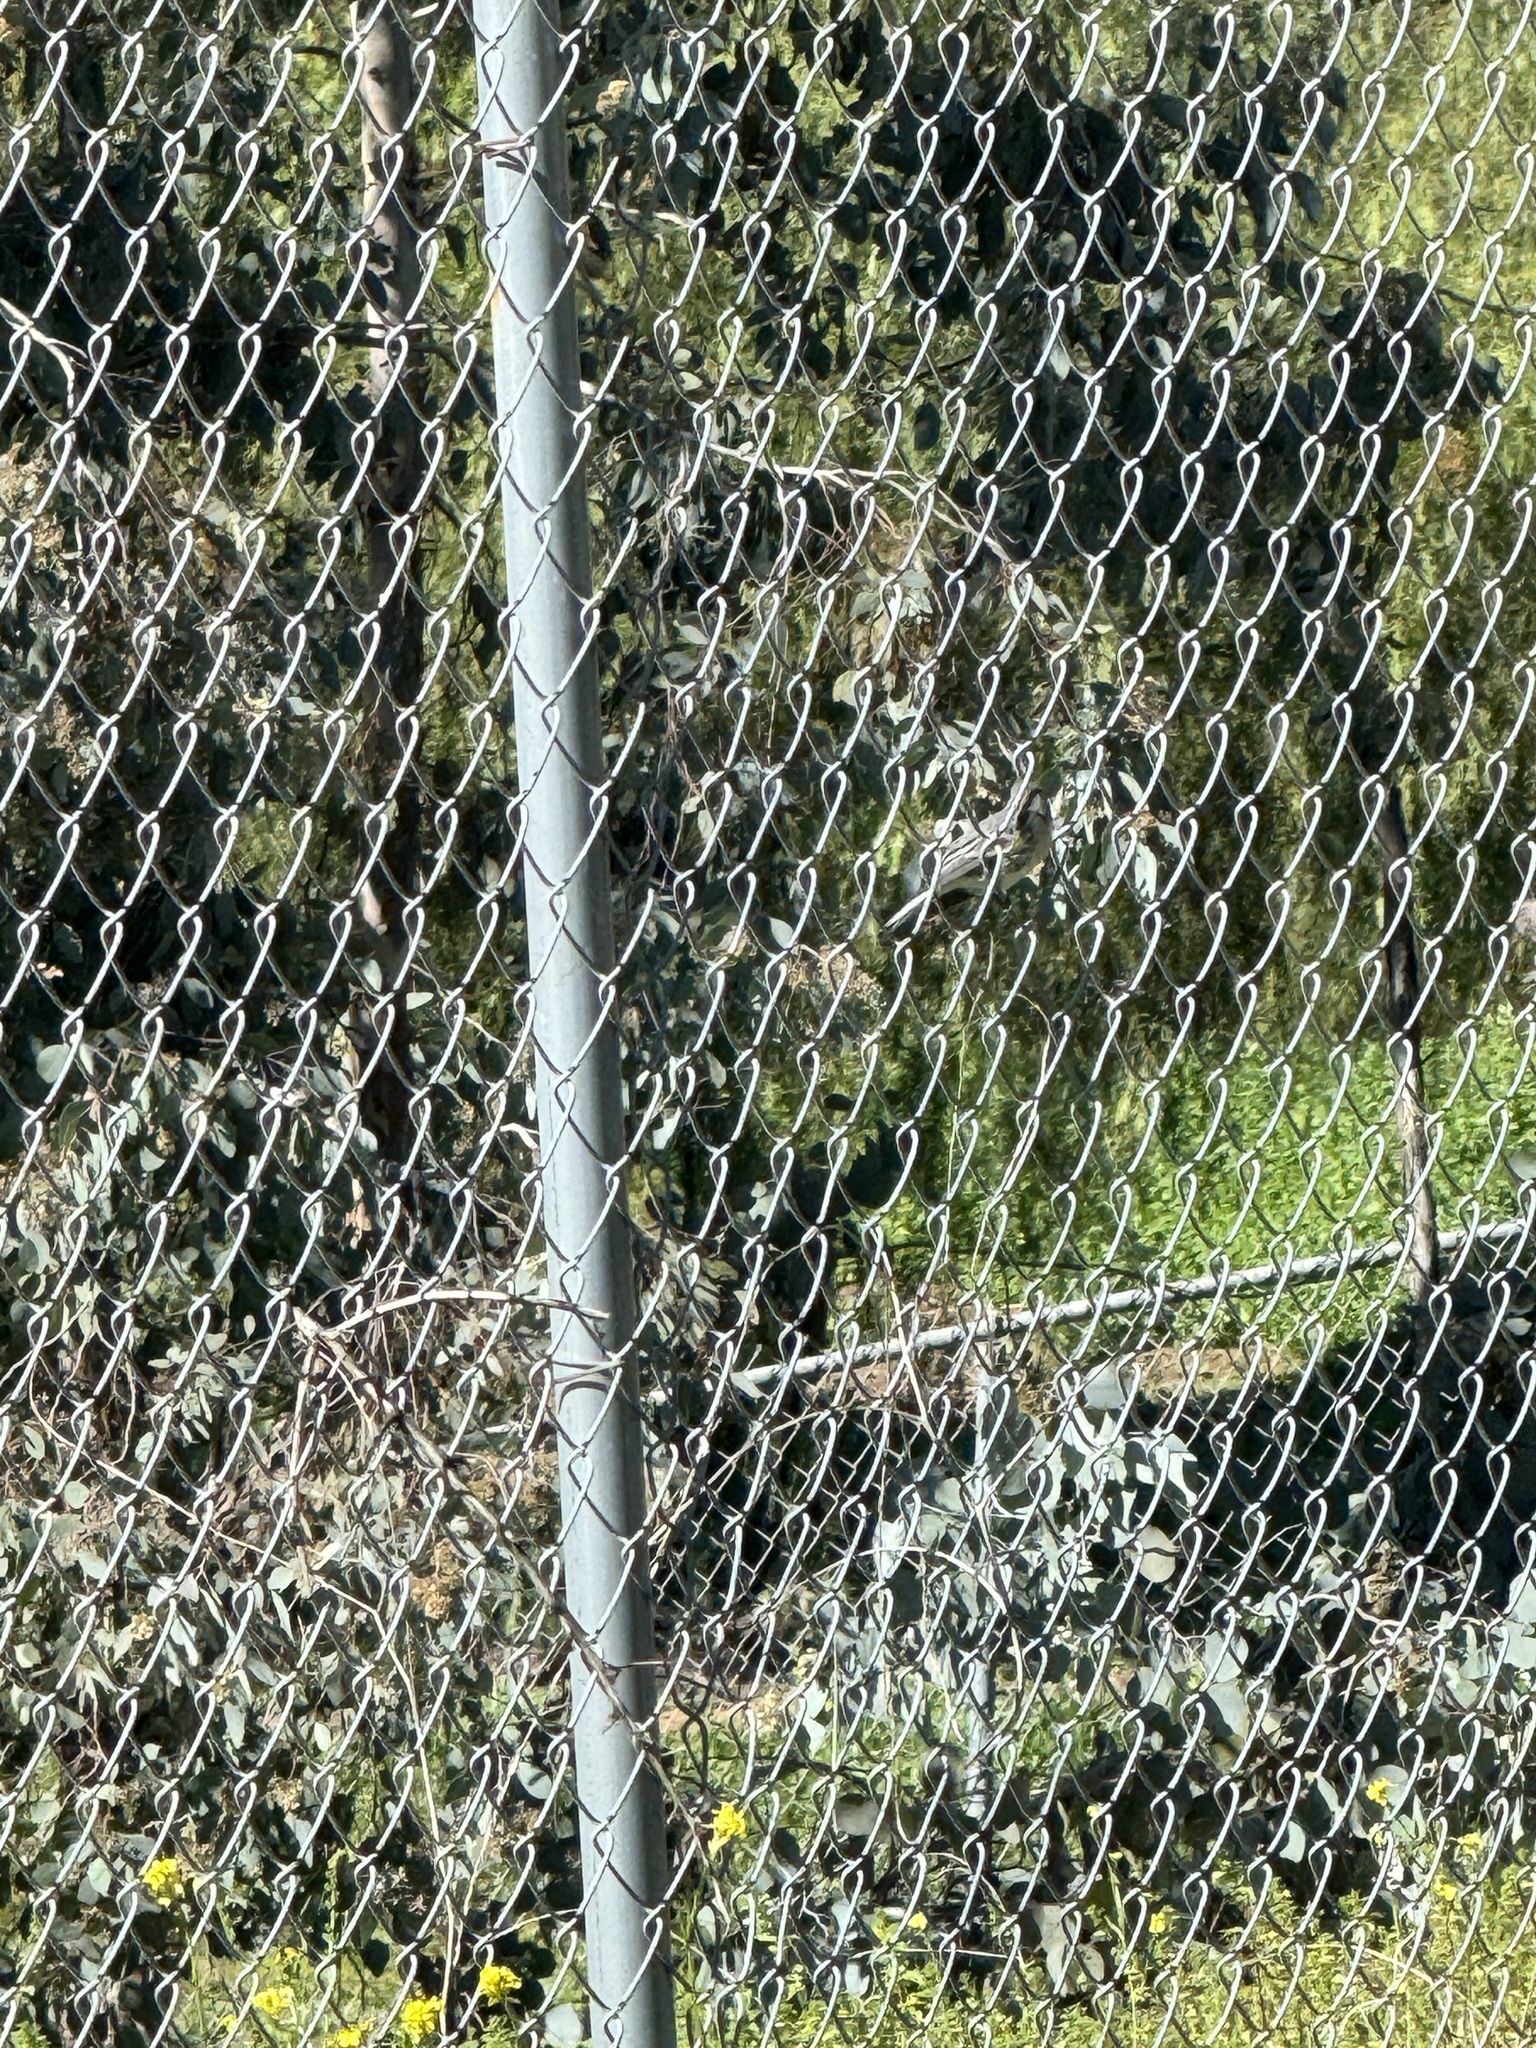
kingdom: Animalia
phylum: Chordata
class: Aves
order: Passeriformes
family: Parulidae
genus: Setophaga
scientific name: Setophaga coronata
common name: Myrtle warbler
